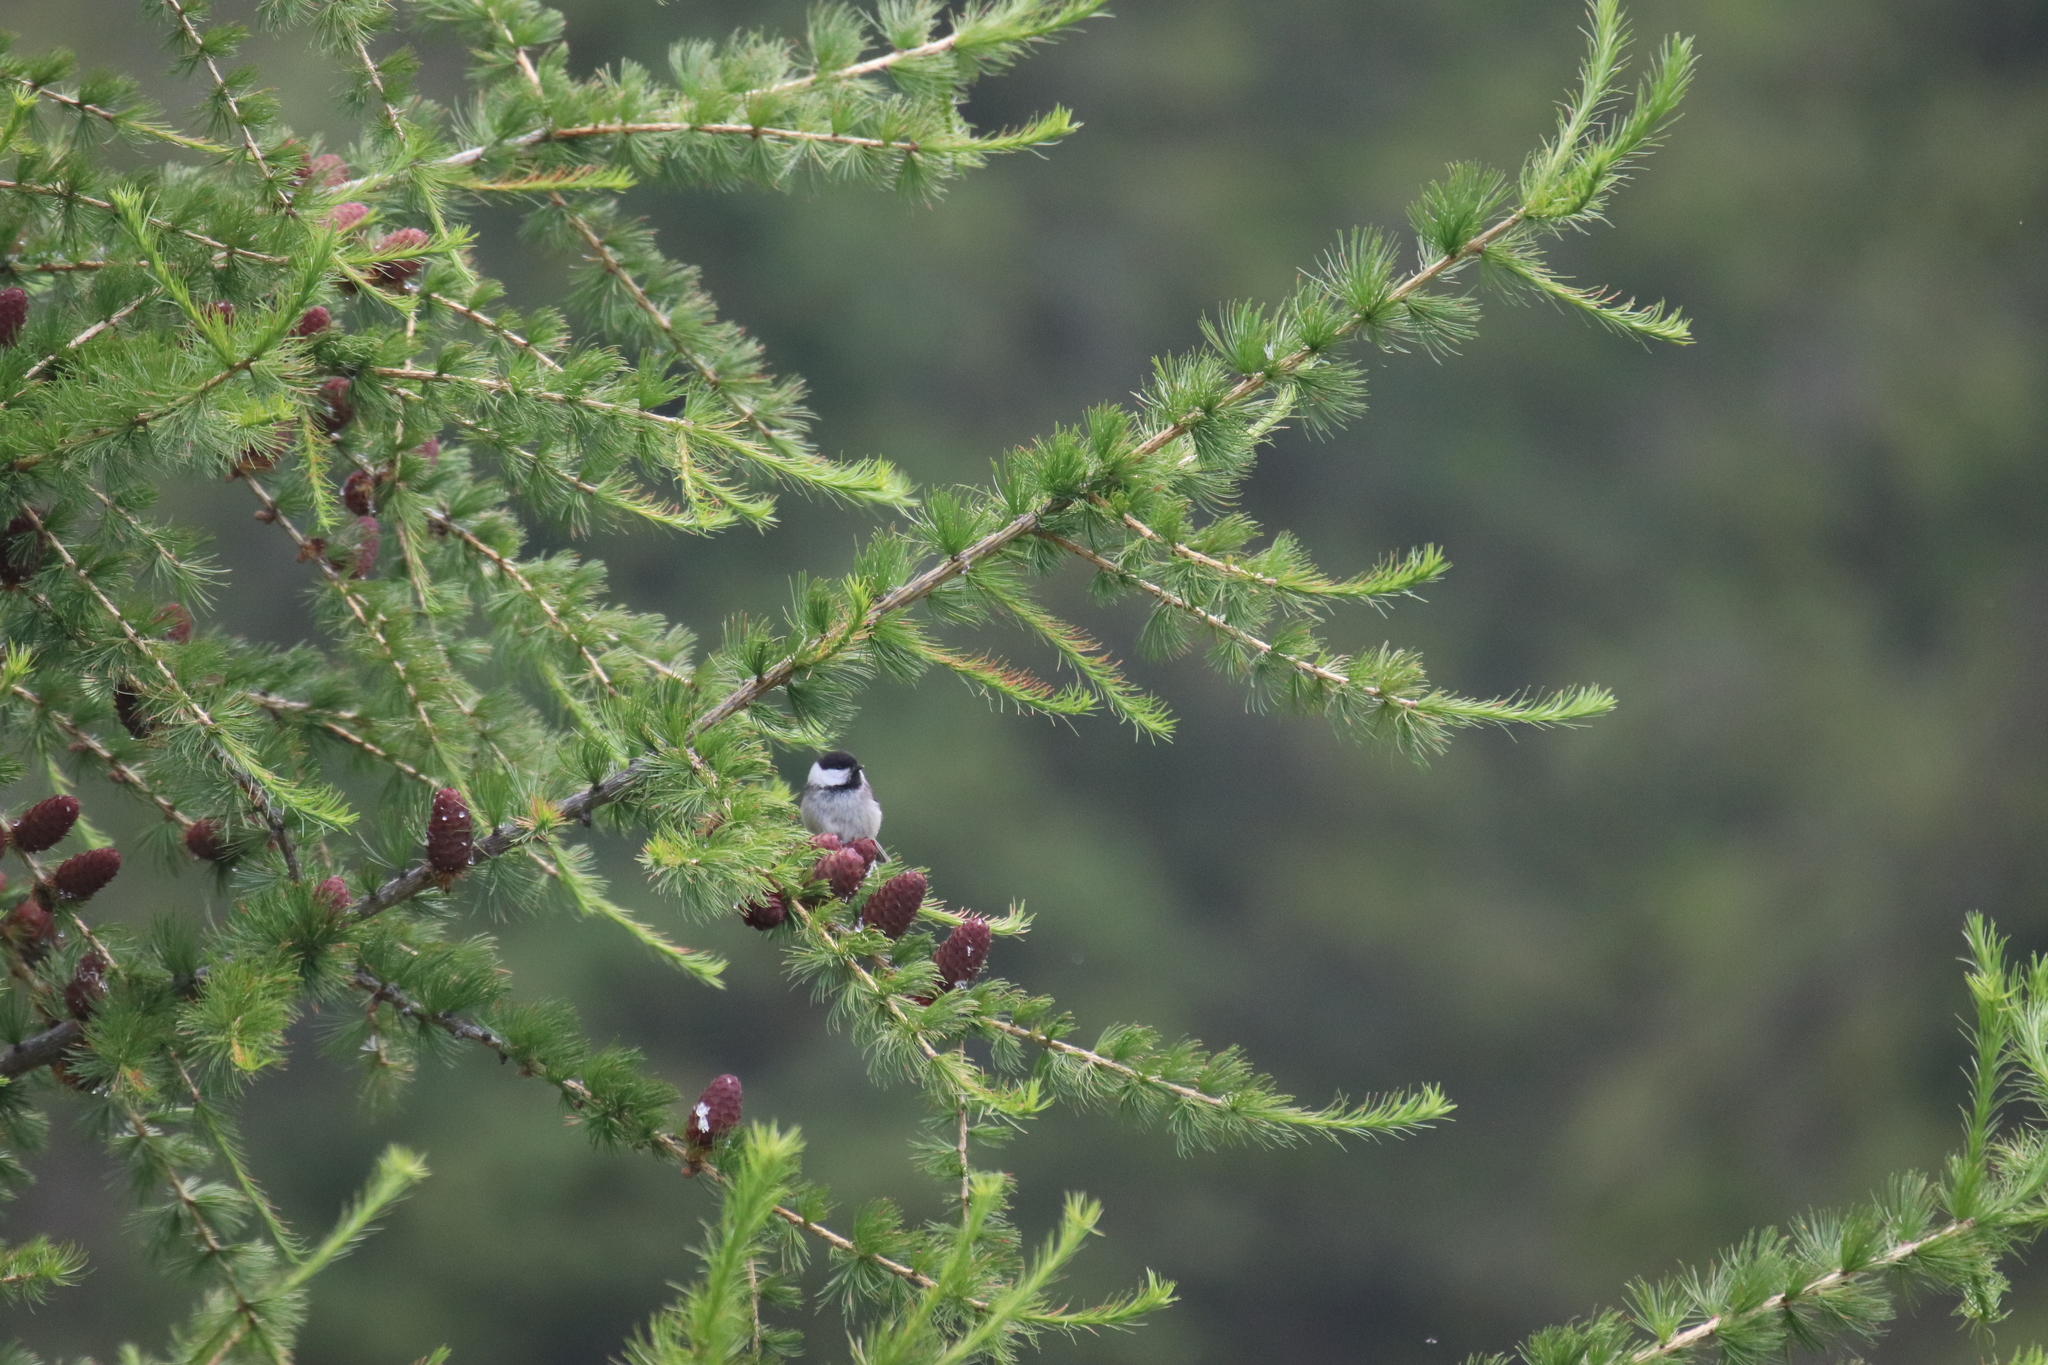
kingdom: Animalia
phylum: Chordata
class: Aves
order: Passeriformes
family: Paridae
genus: Poecile
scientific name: Poecile montanus
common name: Willow tit
